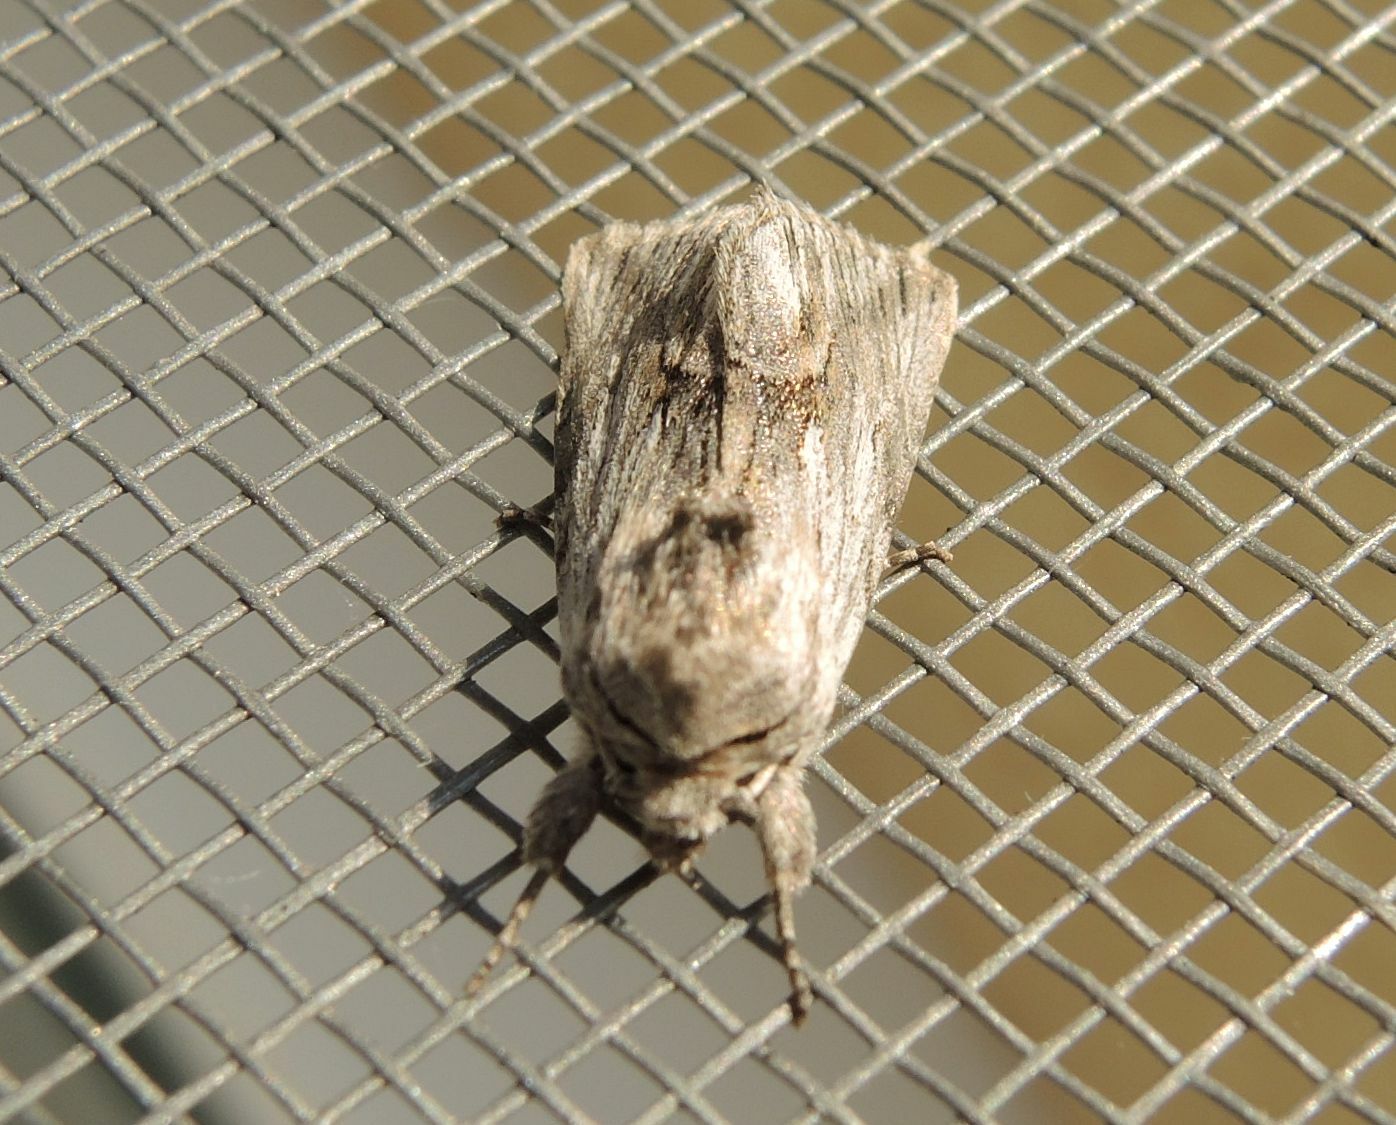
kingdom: Animalia
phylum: Arthropoda
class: Insecta
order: Lepidoptera
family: Noctuidae
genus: Calophasia
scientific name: Calophasia platyptera
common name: Antirrhinum brocade
